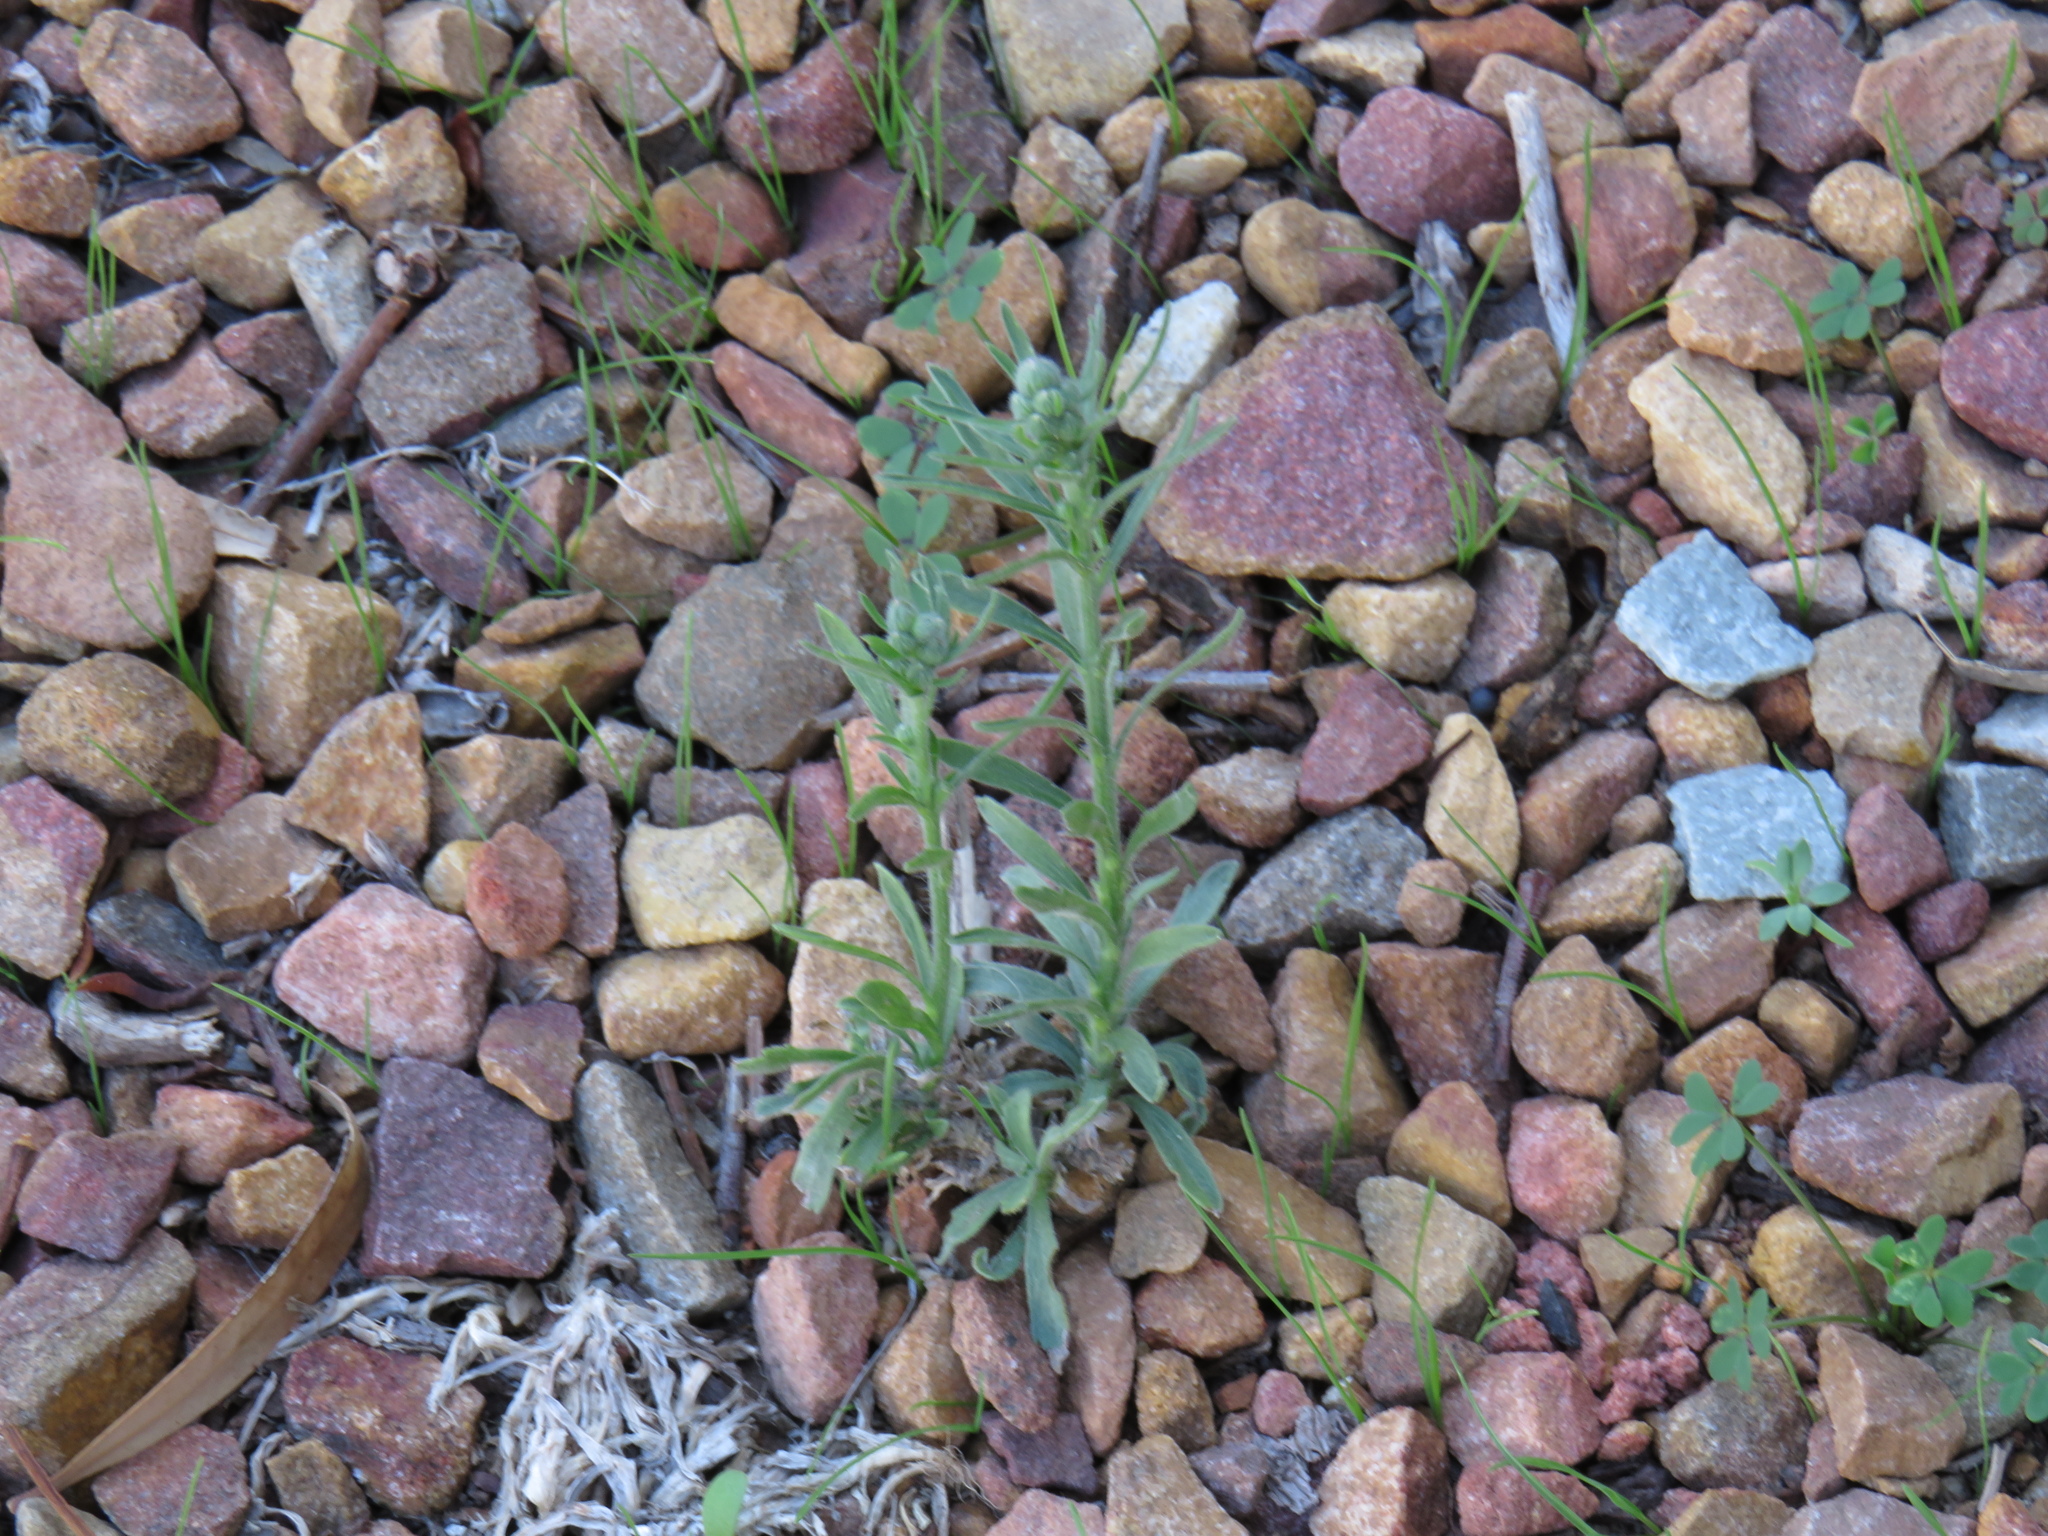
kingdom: Plantae
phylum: Tracheophyta
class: Magnoliopsida
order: Asterales
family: Asteraceae
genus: Erigeron
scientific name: Erigeron bonariensis
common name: Argentine fleabane
